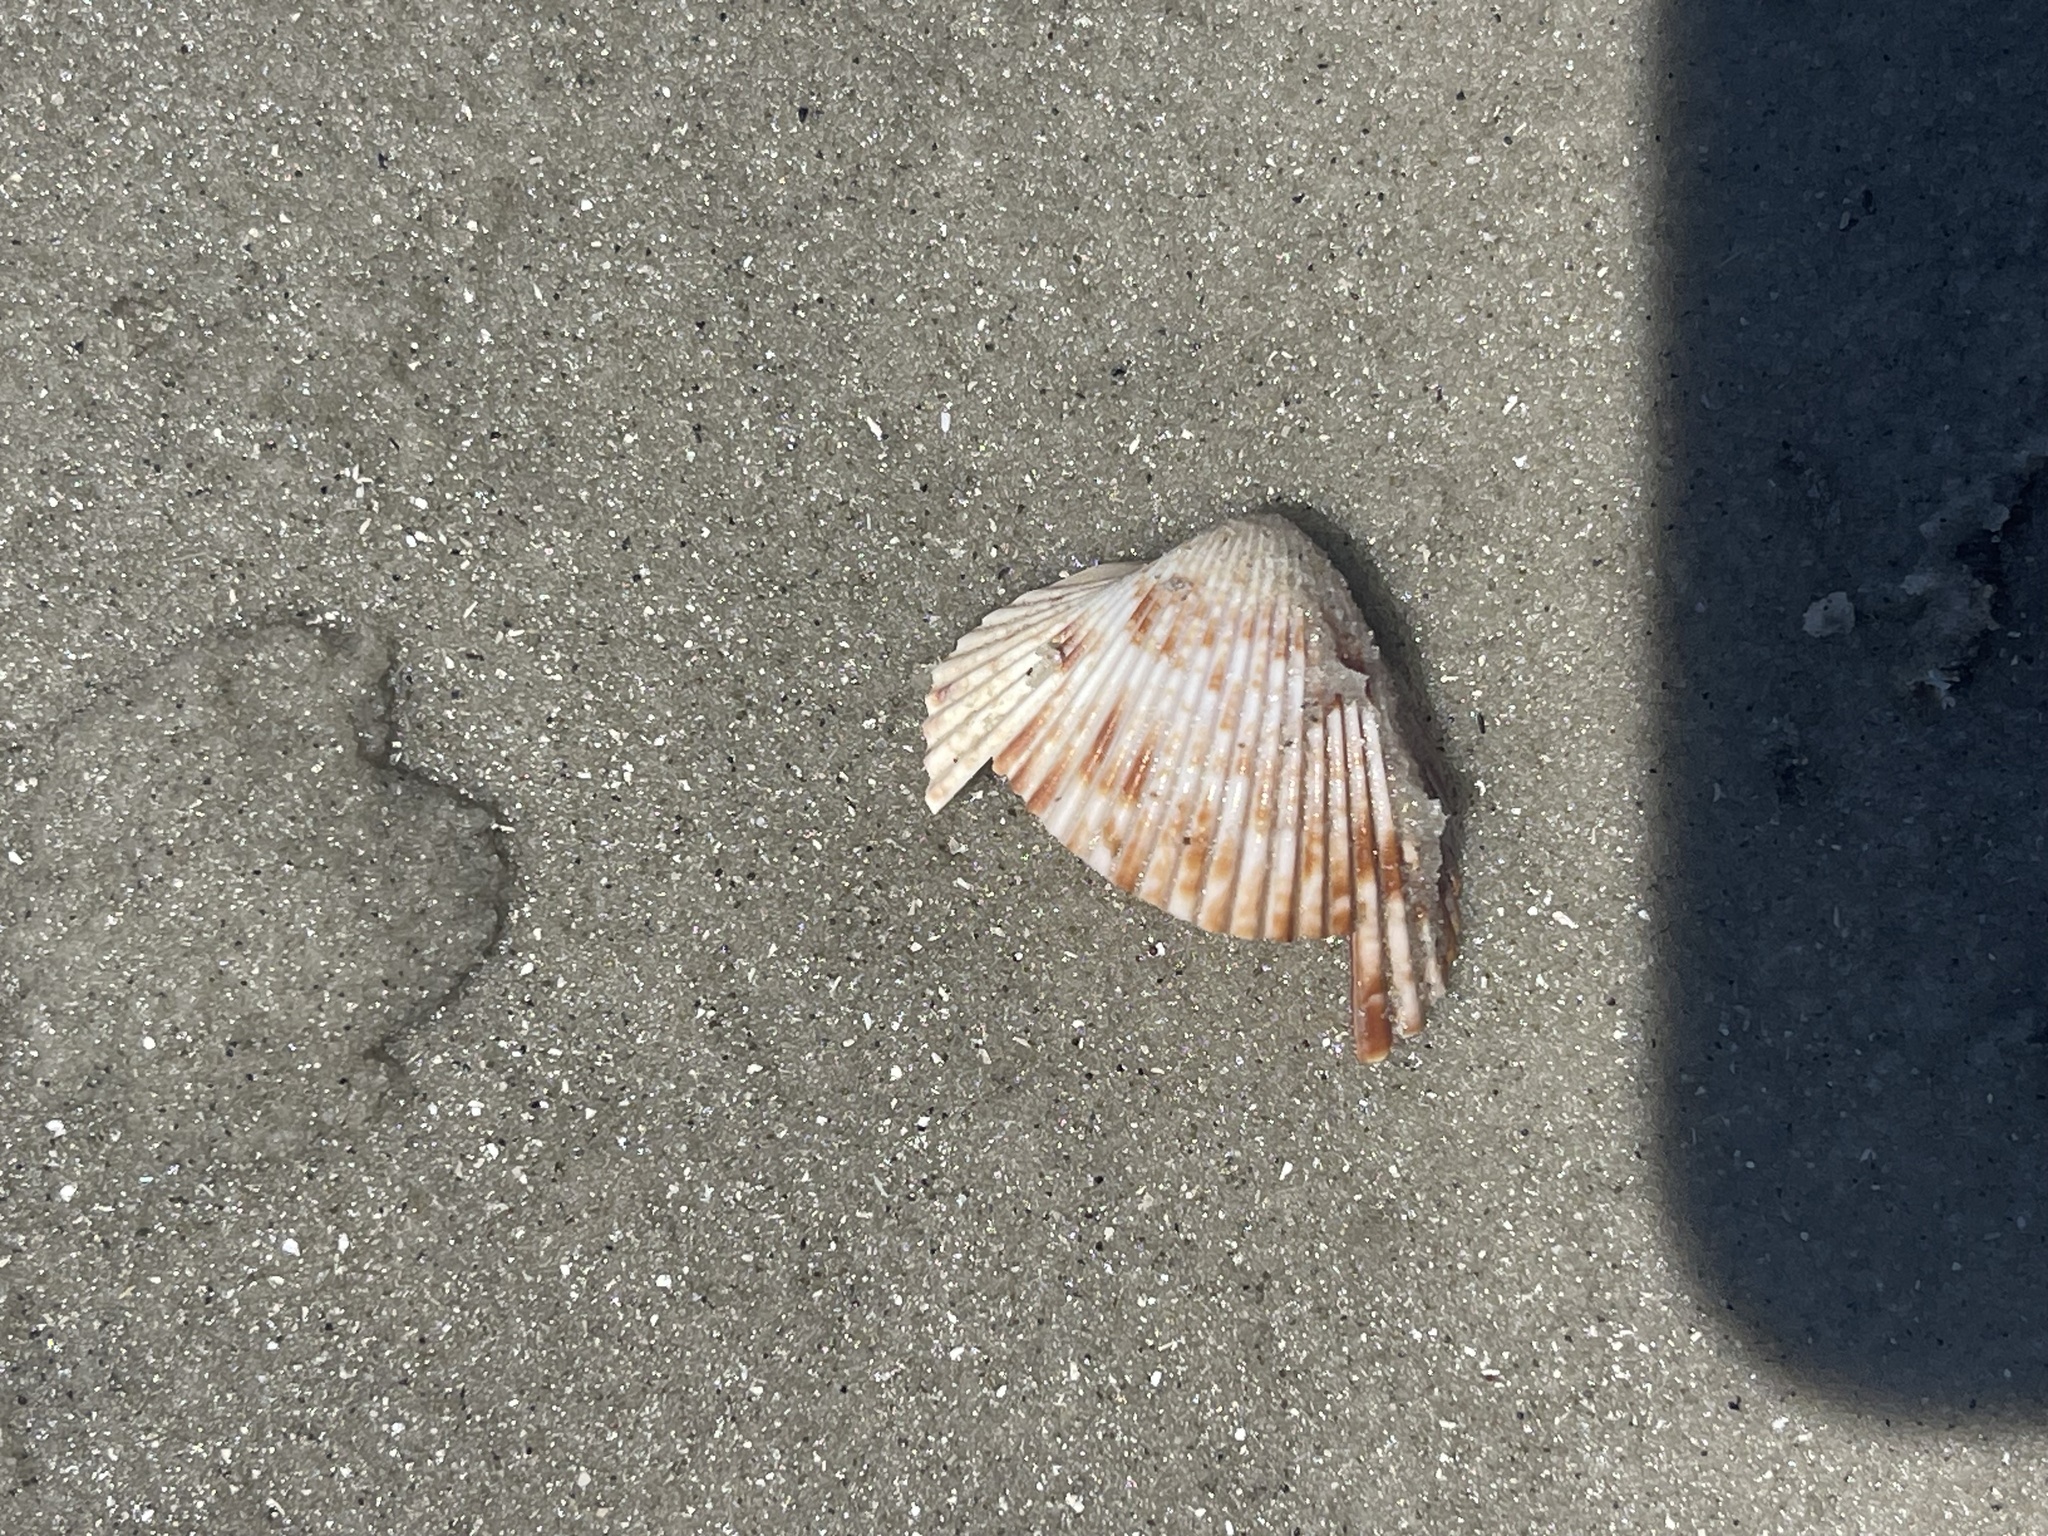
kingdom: Animalia
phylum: Mollusca
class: Bivalvia
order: Cardiida
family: Cardiidae
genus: Dinocardium
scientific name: Dinocardium robustum
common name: Atlantic giant cockle
